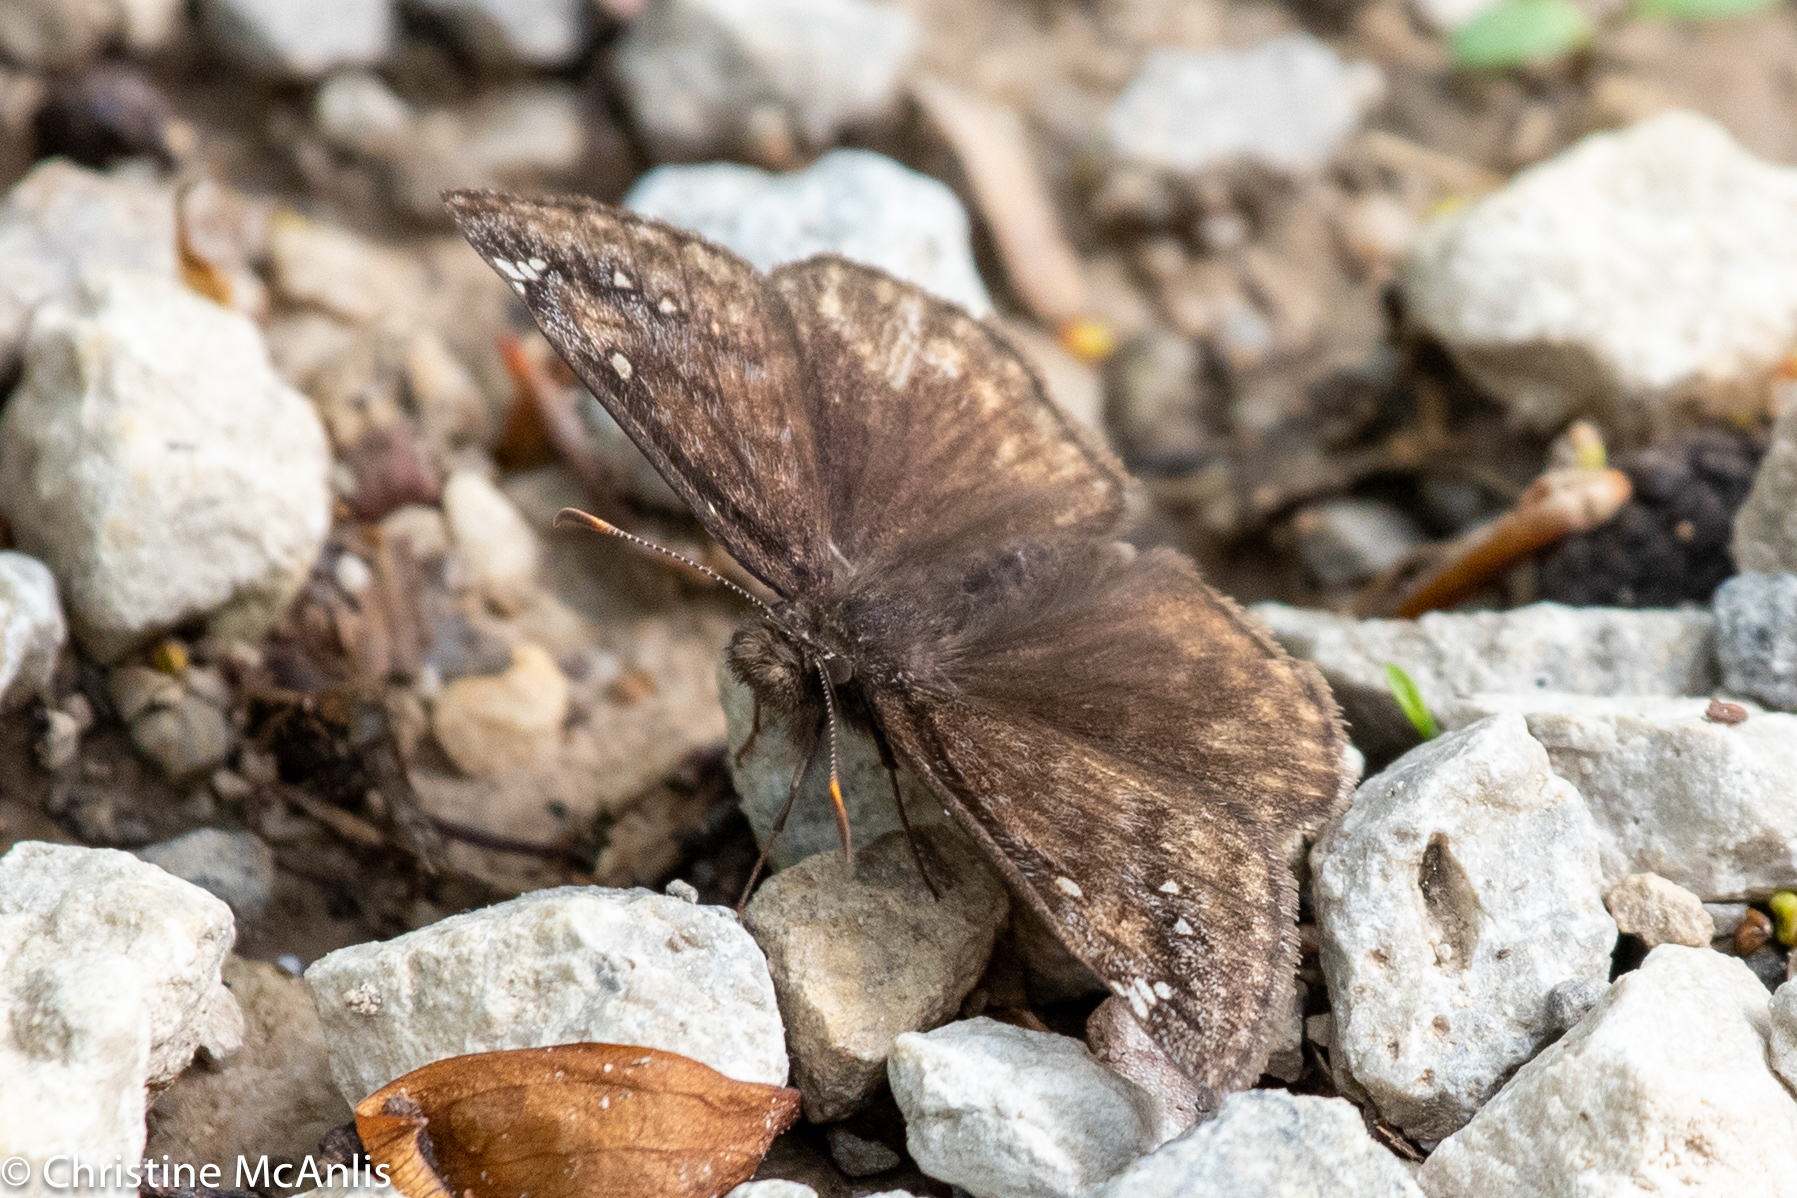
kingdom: Animalia
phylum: Arthropoda
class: Insecta
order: Lepidoptera
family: Hesperiidae
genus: Erynnis
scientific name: Erynnis juvenalis
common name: Juvenal's duskywing
